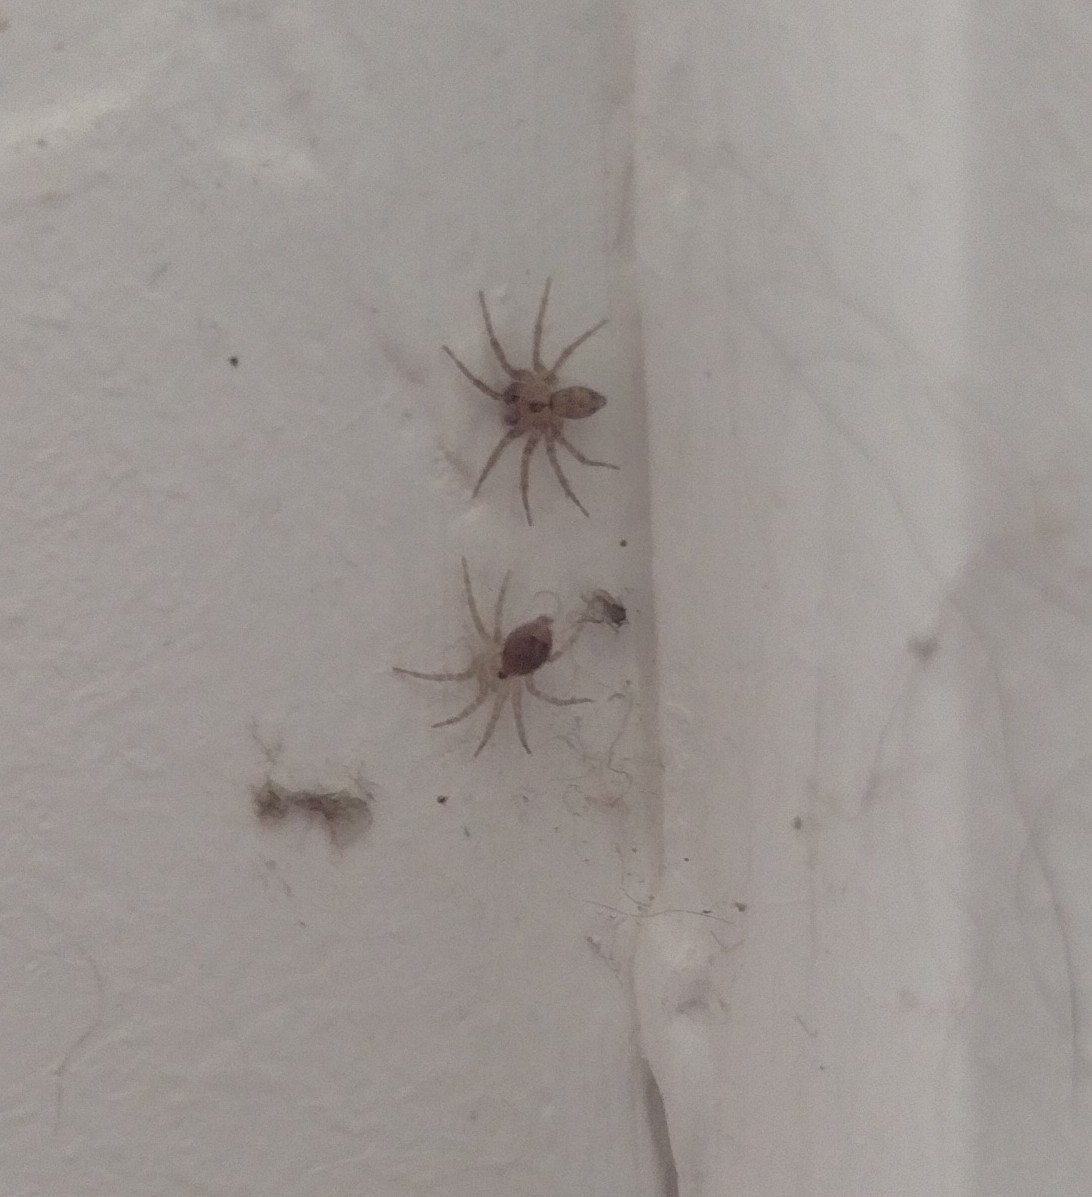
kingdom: Animalia
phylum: Arthropoda
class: Arachnida
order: Araneae
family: Oecobiidae
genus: Oecobius
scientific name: Oecobius navus
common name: Flatmesh weaver
